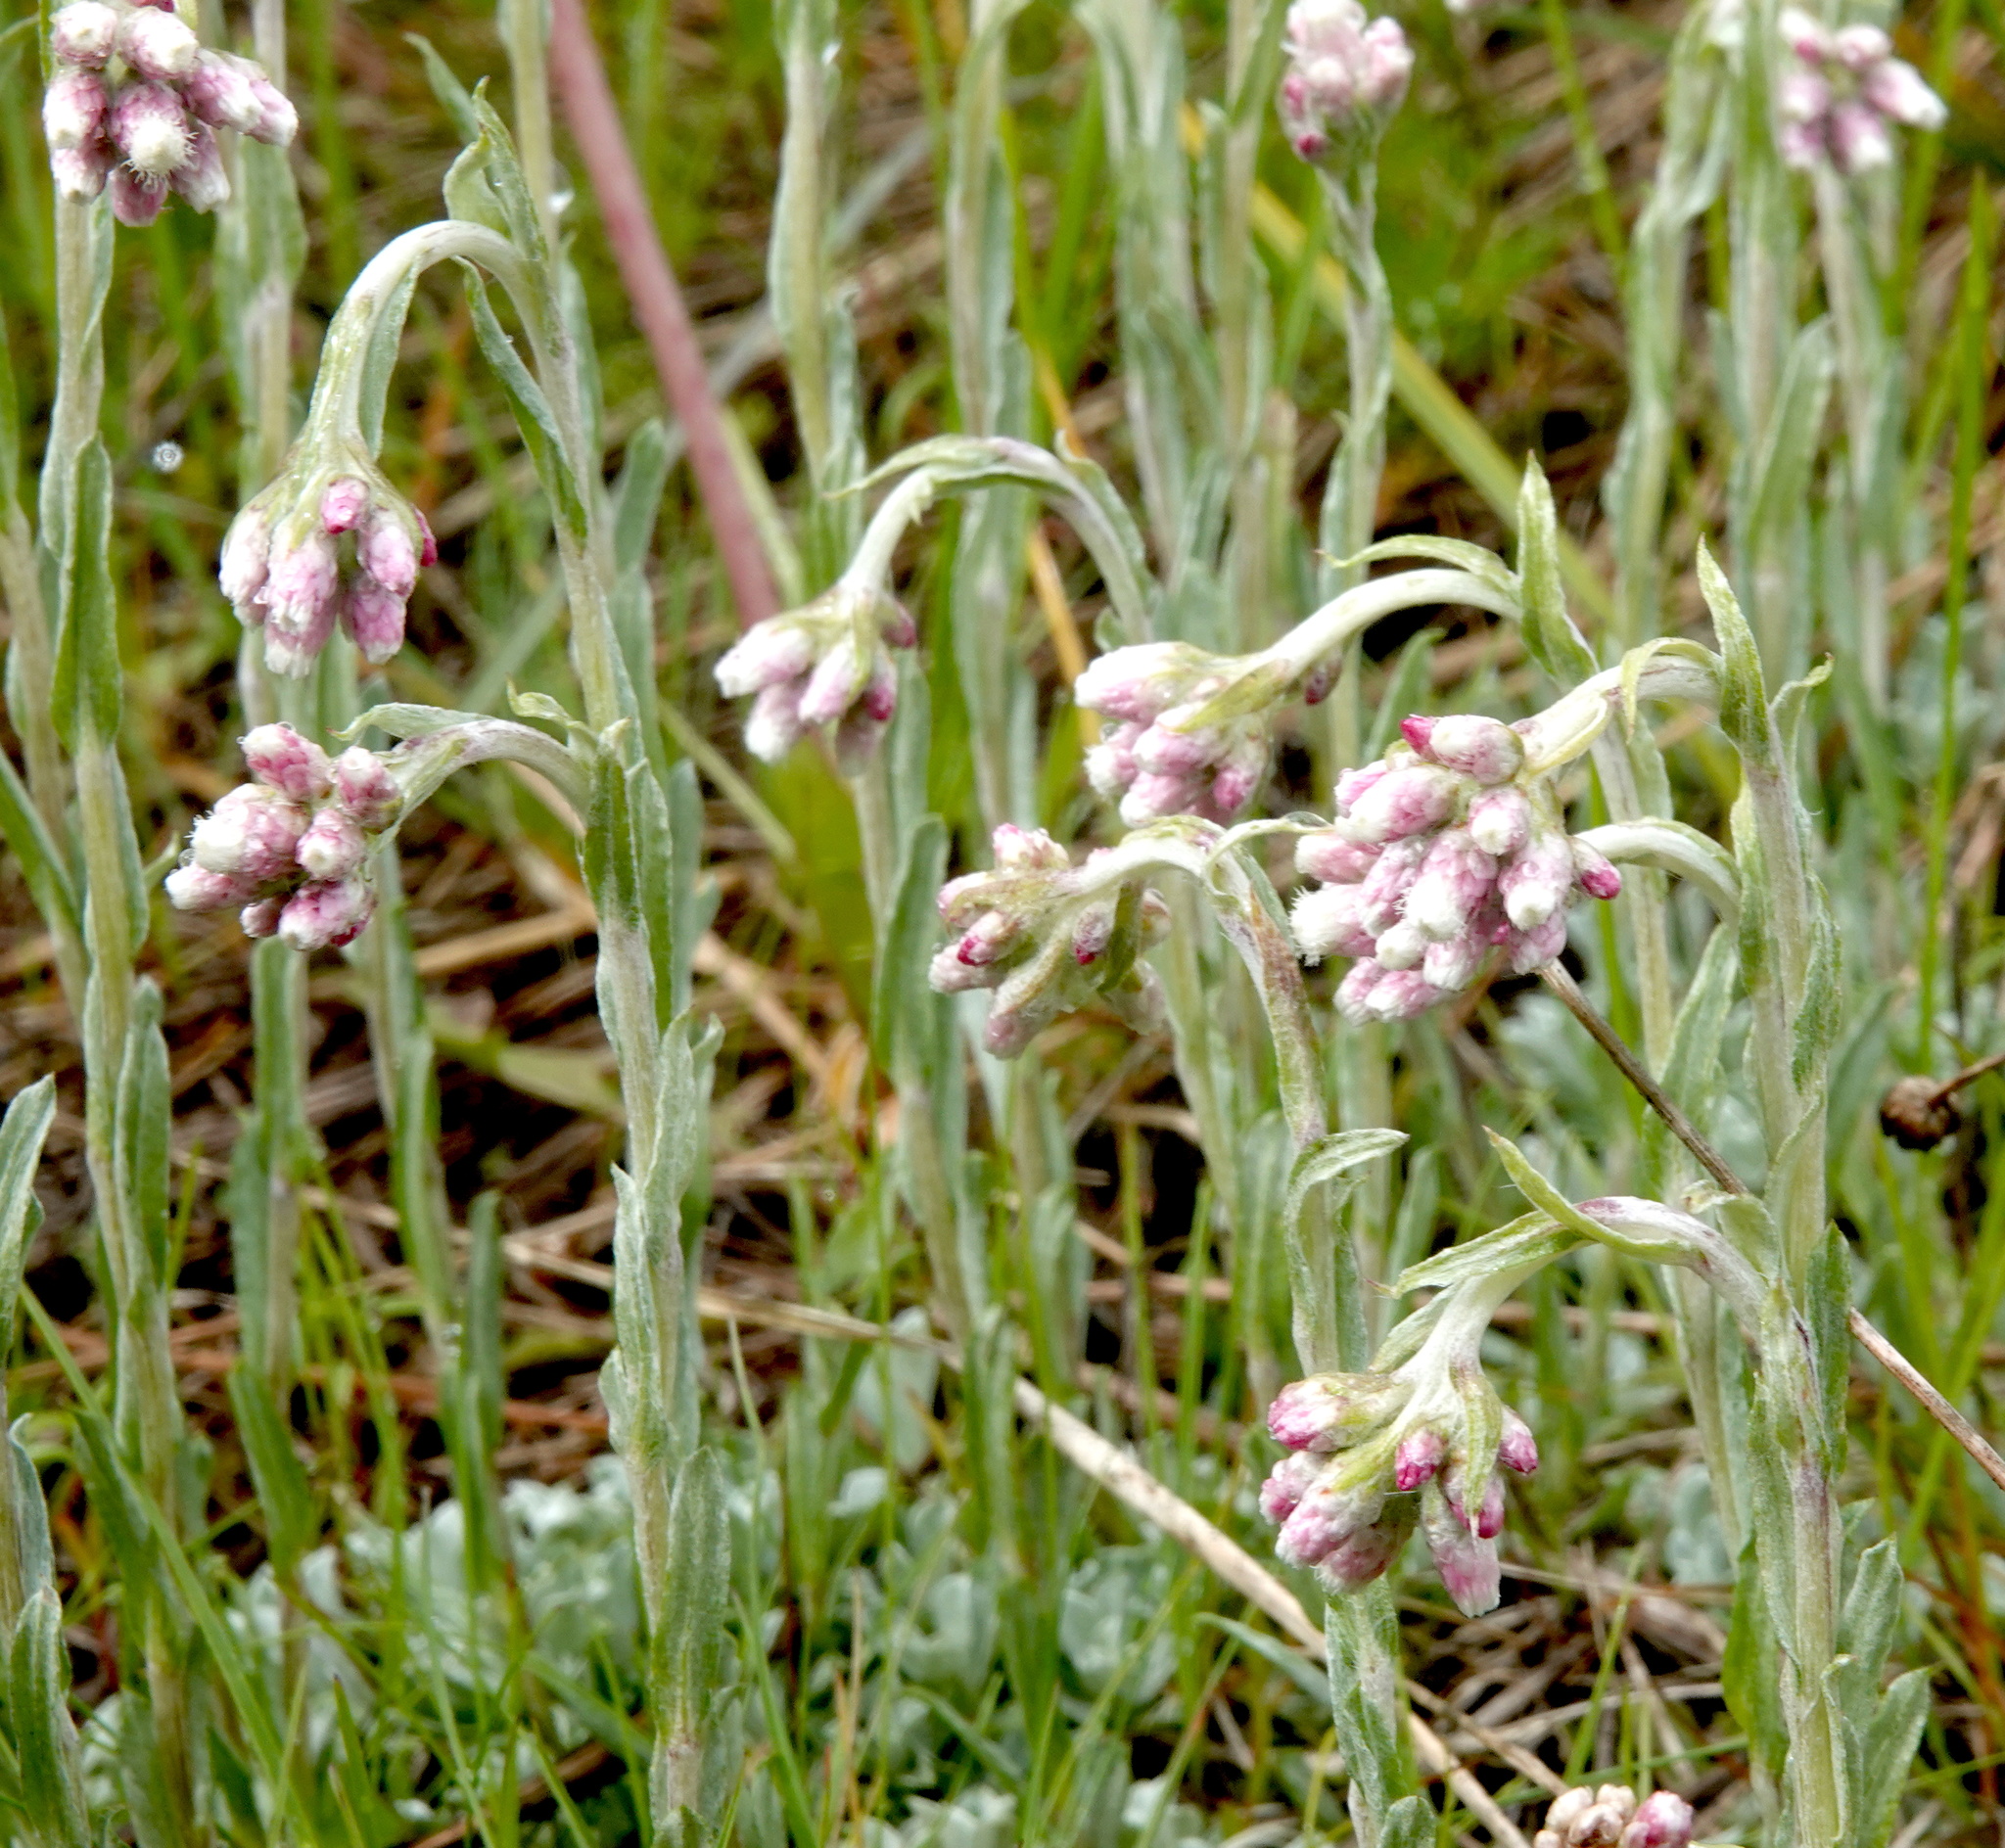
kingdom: Plantae
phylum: Tracheophyta
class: Magnoliopsida
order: Asterales
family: Asteraceae
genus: Antennaria
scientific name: Antennaria rosea
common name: Rosy pussytoes
